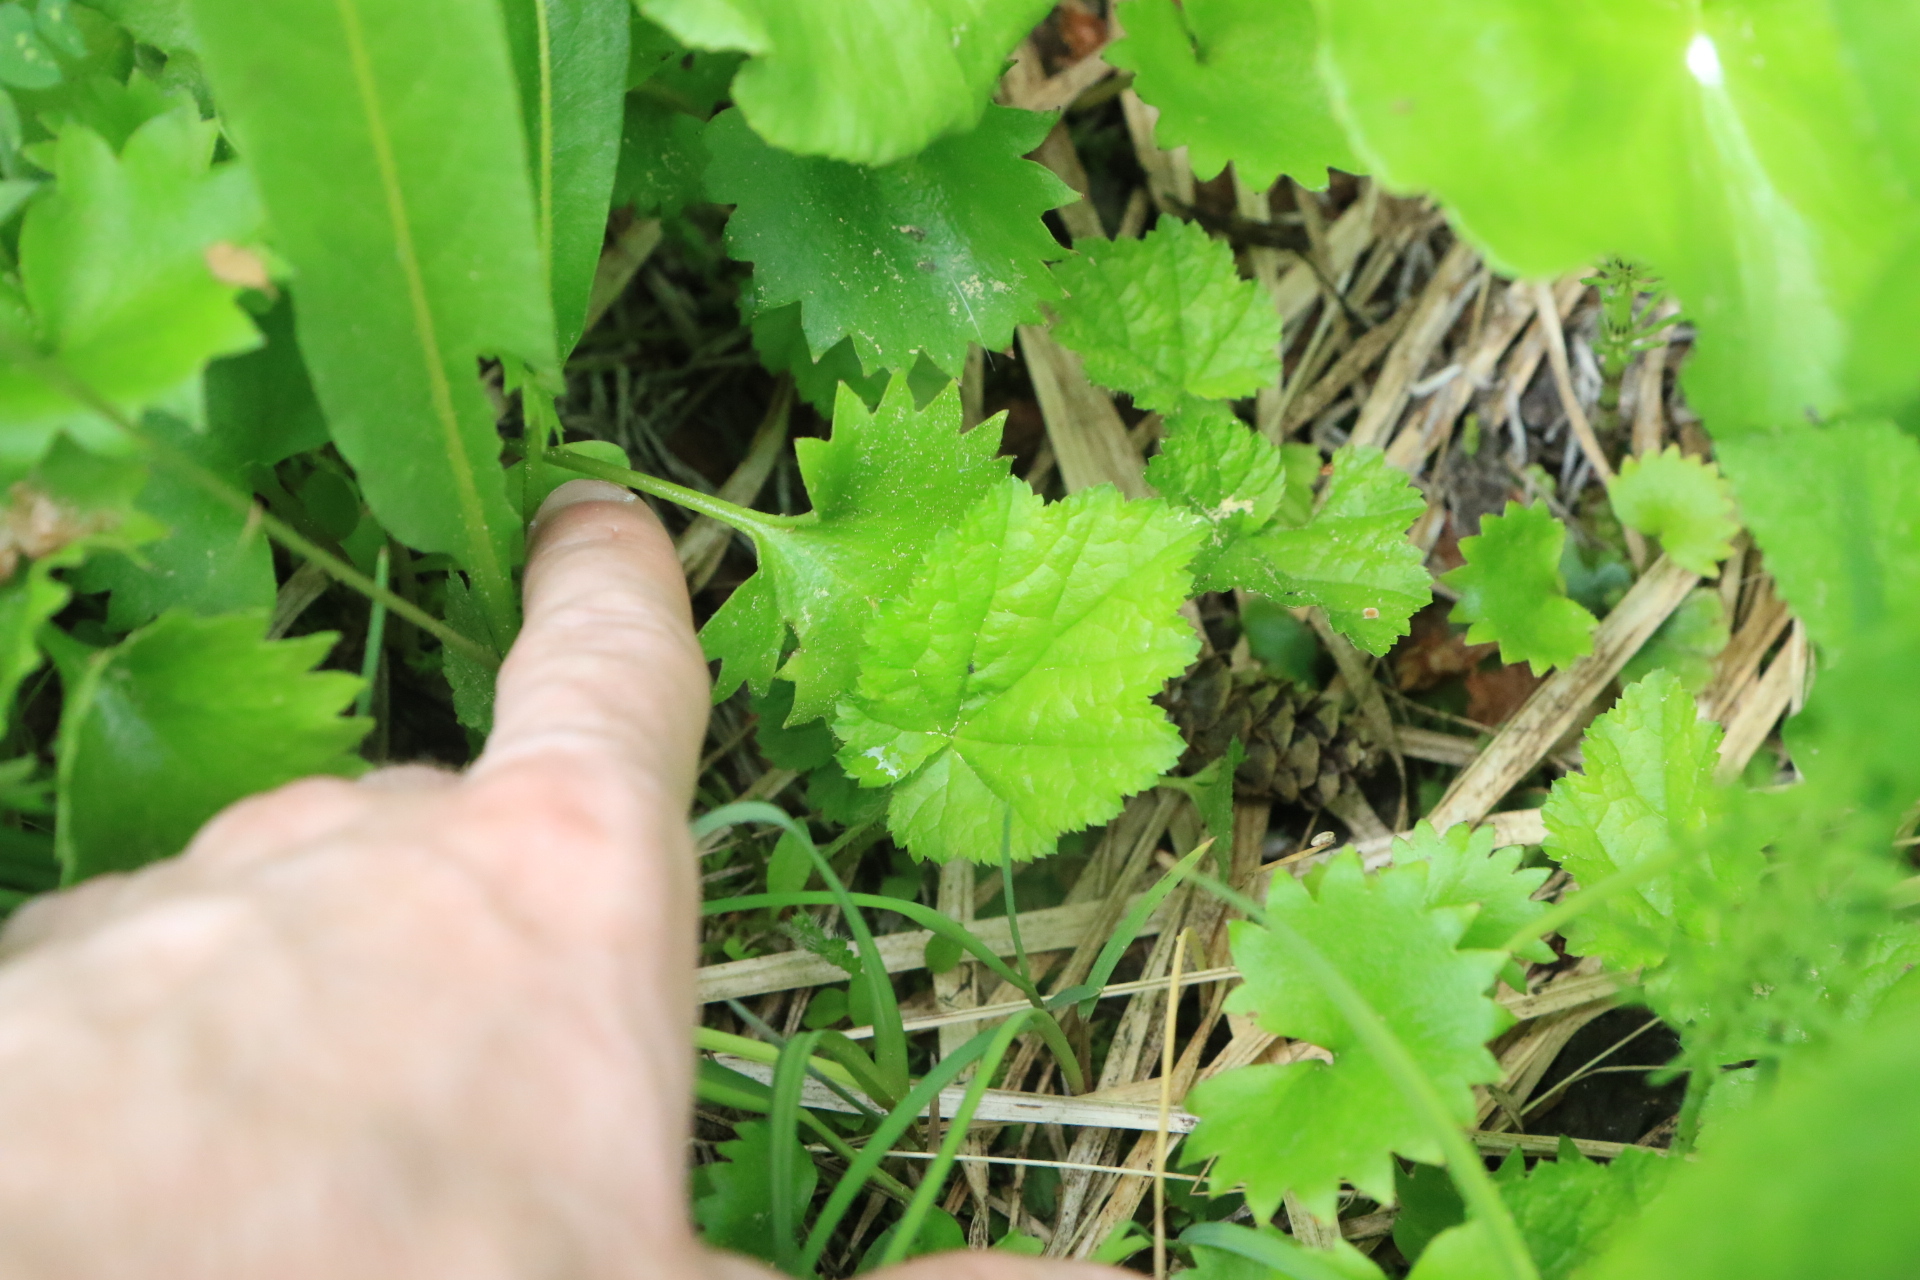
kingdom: Plantae
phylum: Tracheophyta
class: Magnoliopsida
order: Saxifragales
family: Saxifragaceae
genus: Pectiantia
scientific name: Pectiantia pentandra
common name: Alpine bishop's-cap
